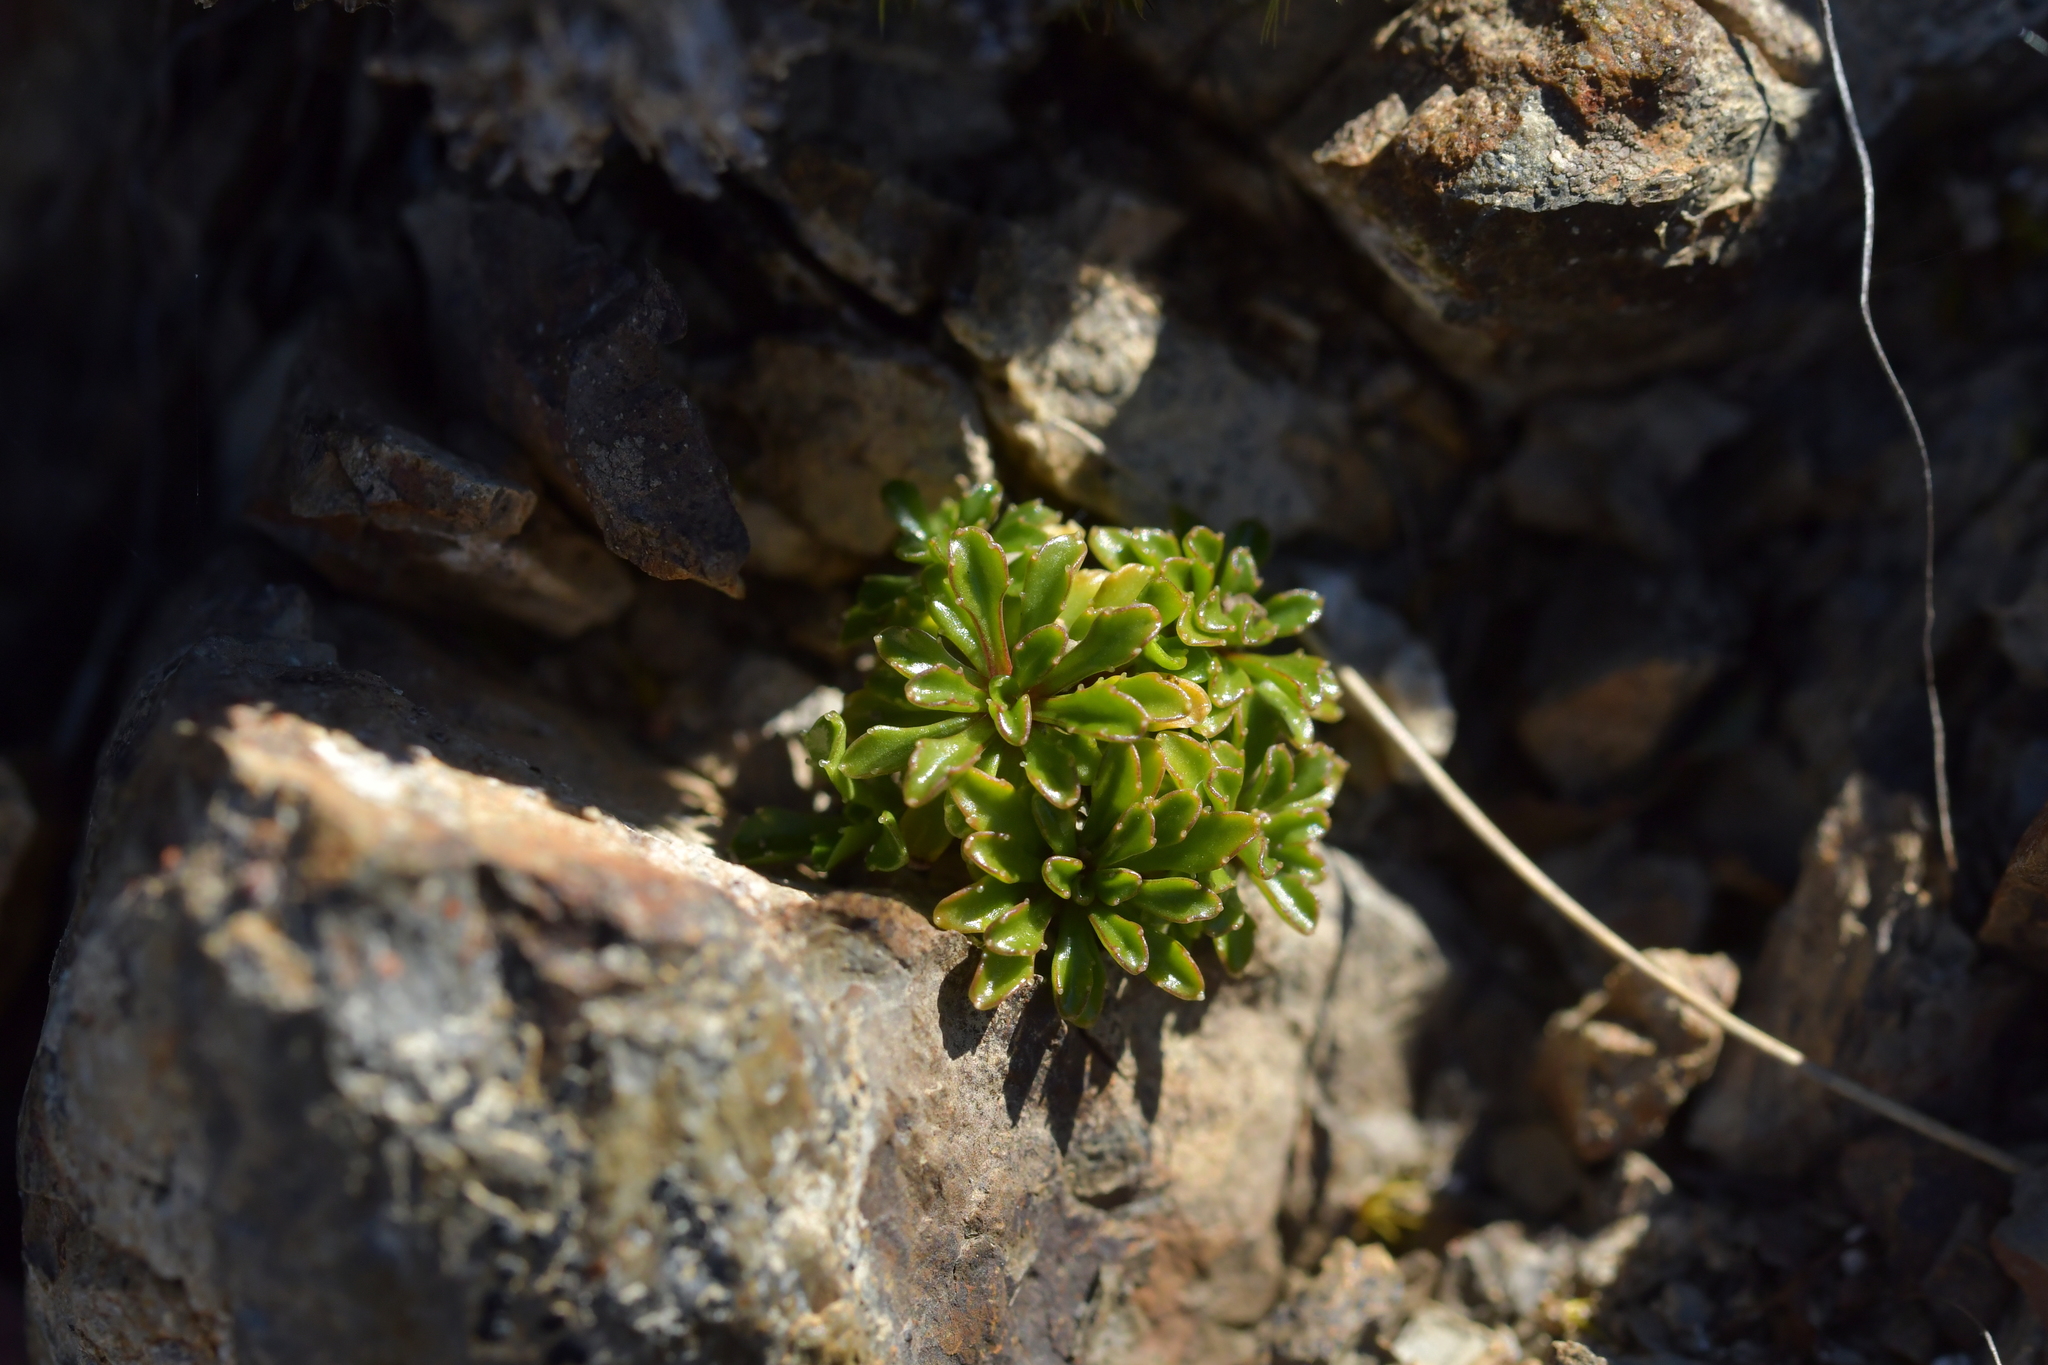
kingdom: Plantae
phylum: Tracheophyta
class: Magnoliopsida
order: Asterales
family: Campanulaceae
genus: Wahlenbergia
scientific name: Wahlenbergia pygmaea
